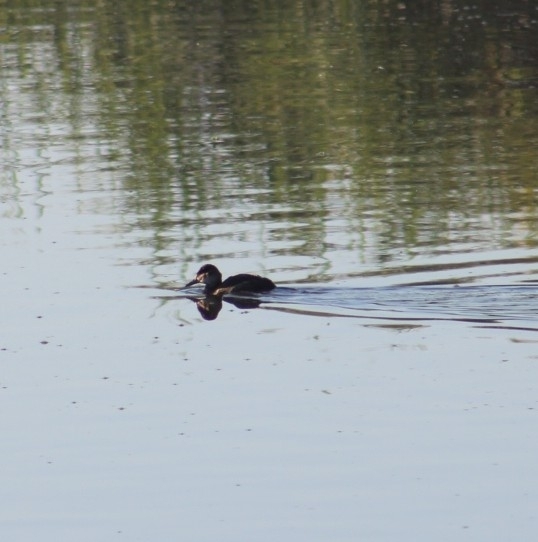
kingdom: Animalia
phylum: Chordata
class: Aves
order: Anseriformes
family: Anatidae
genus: Oxyura
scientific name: Oxyura jamaicensis
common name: Ruddy duck
